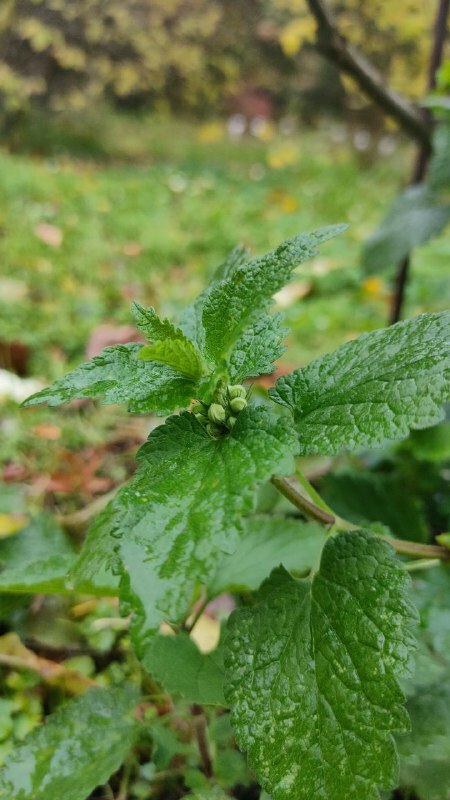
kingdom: Plantae
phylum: Tracheophyta
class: Magnoliopsida
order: Lamiales
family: Lamiaceae
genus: Lamium
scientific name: Lamium album
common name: White dead-nettle
